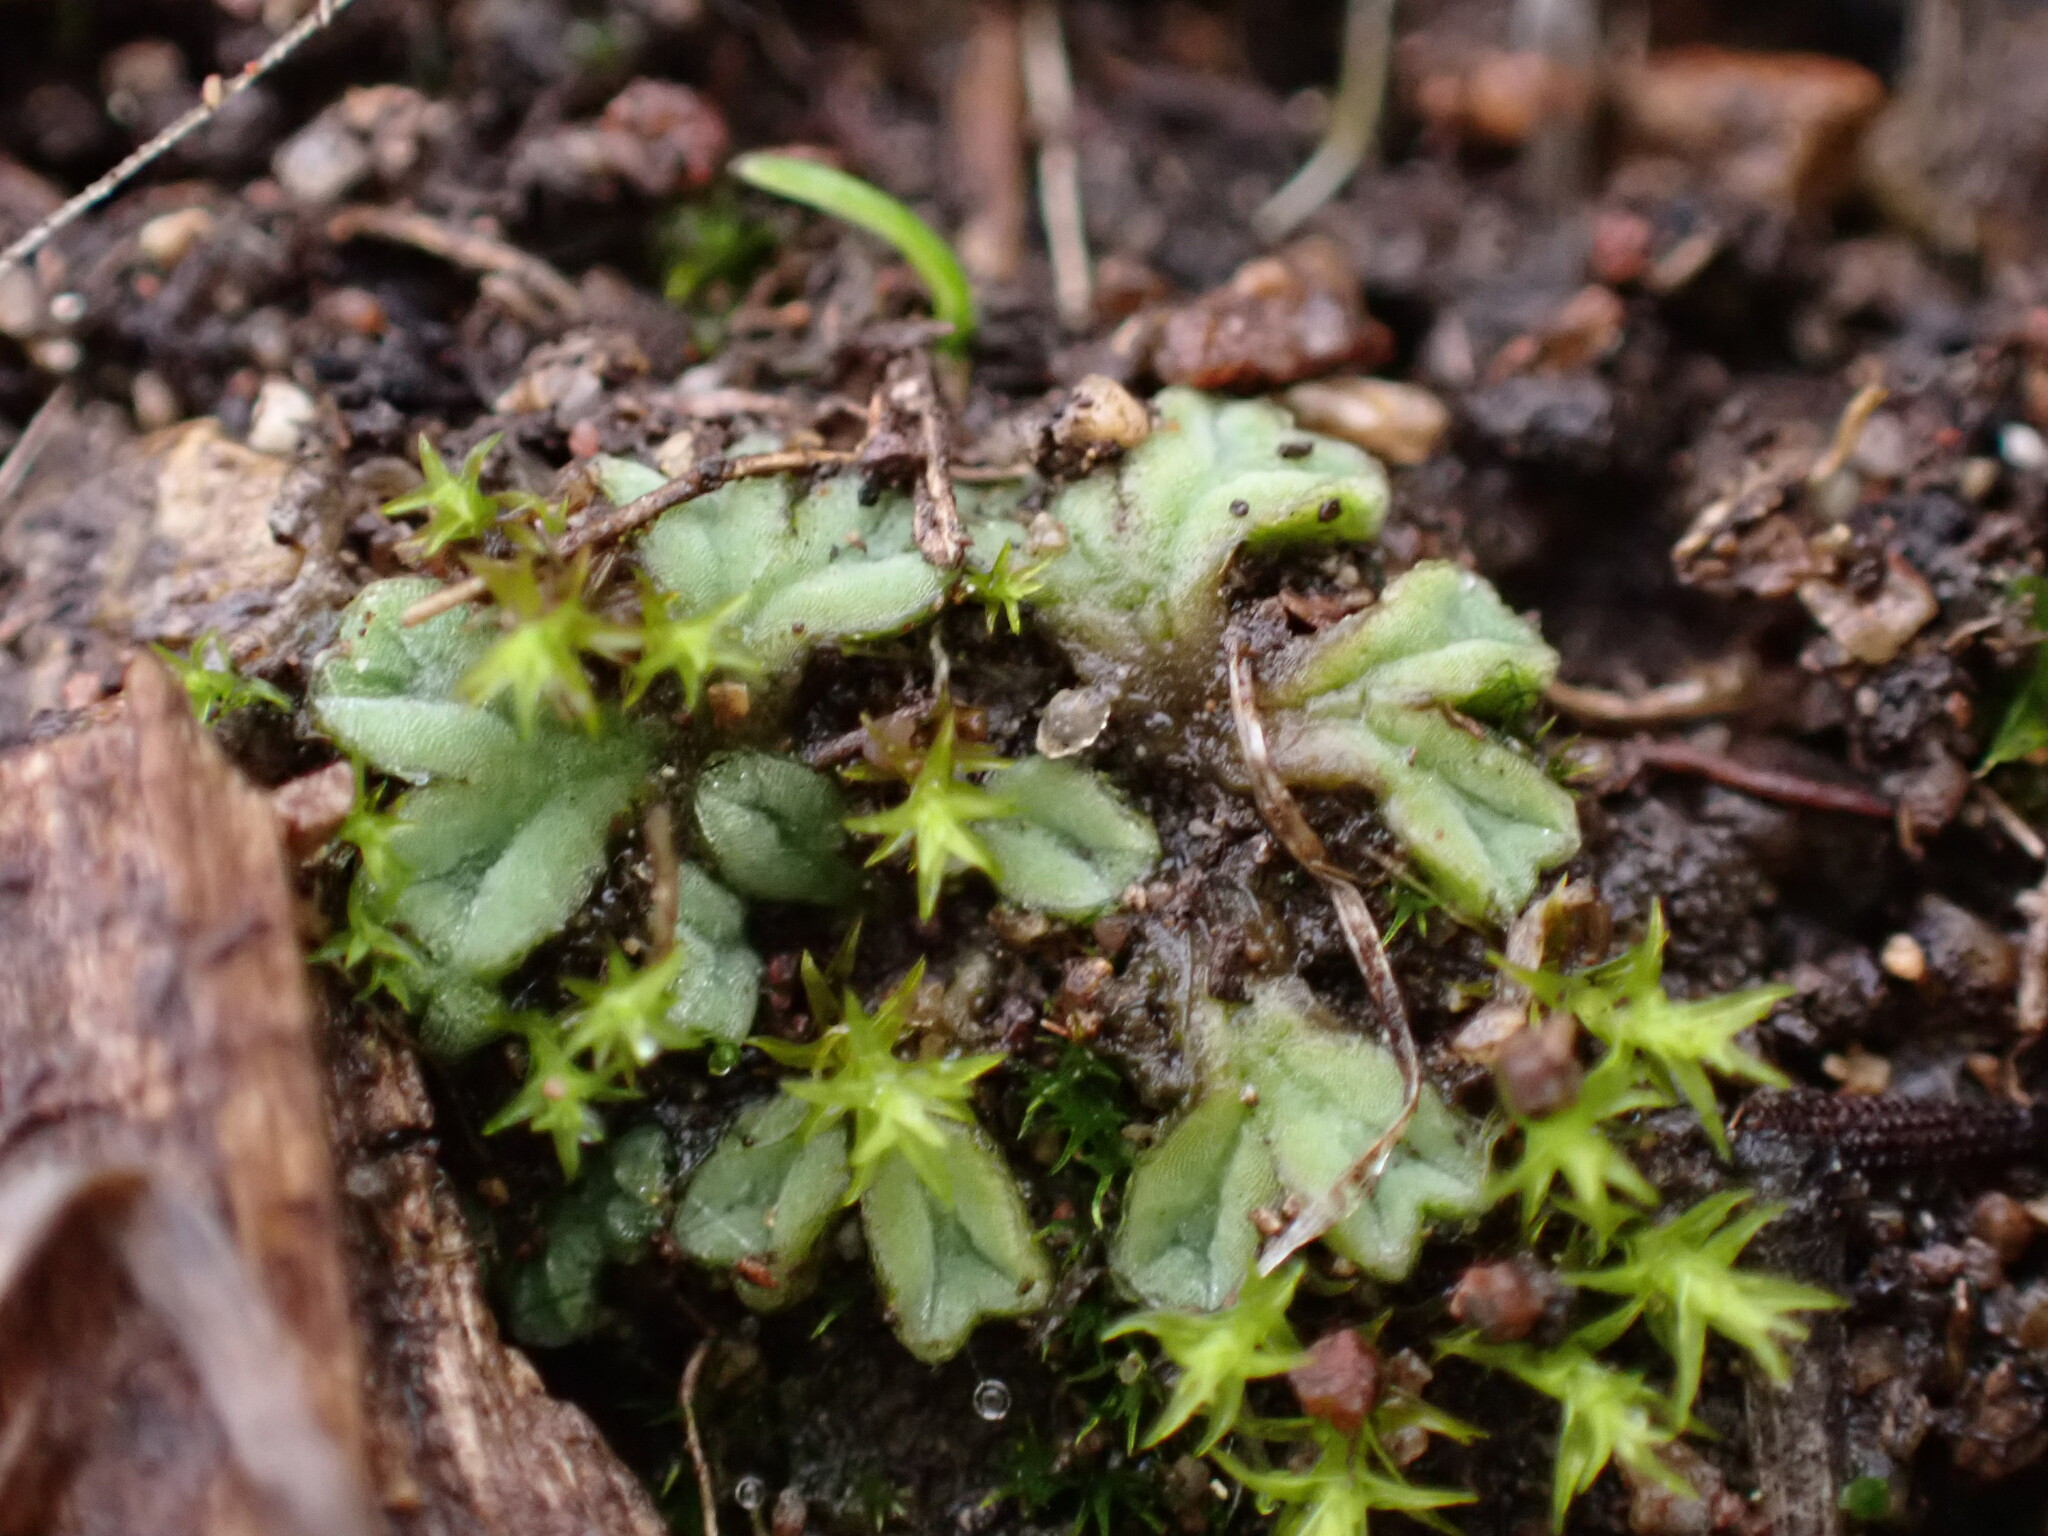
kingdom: Plantae
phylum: Marchantiophyta
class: Marchantiopsida
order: Marchantiales
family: Ricciaceae
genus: Riccia
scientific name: Riccia sorocarpa
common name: Common crystalwort
